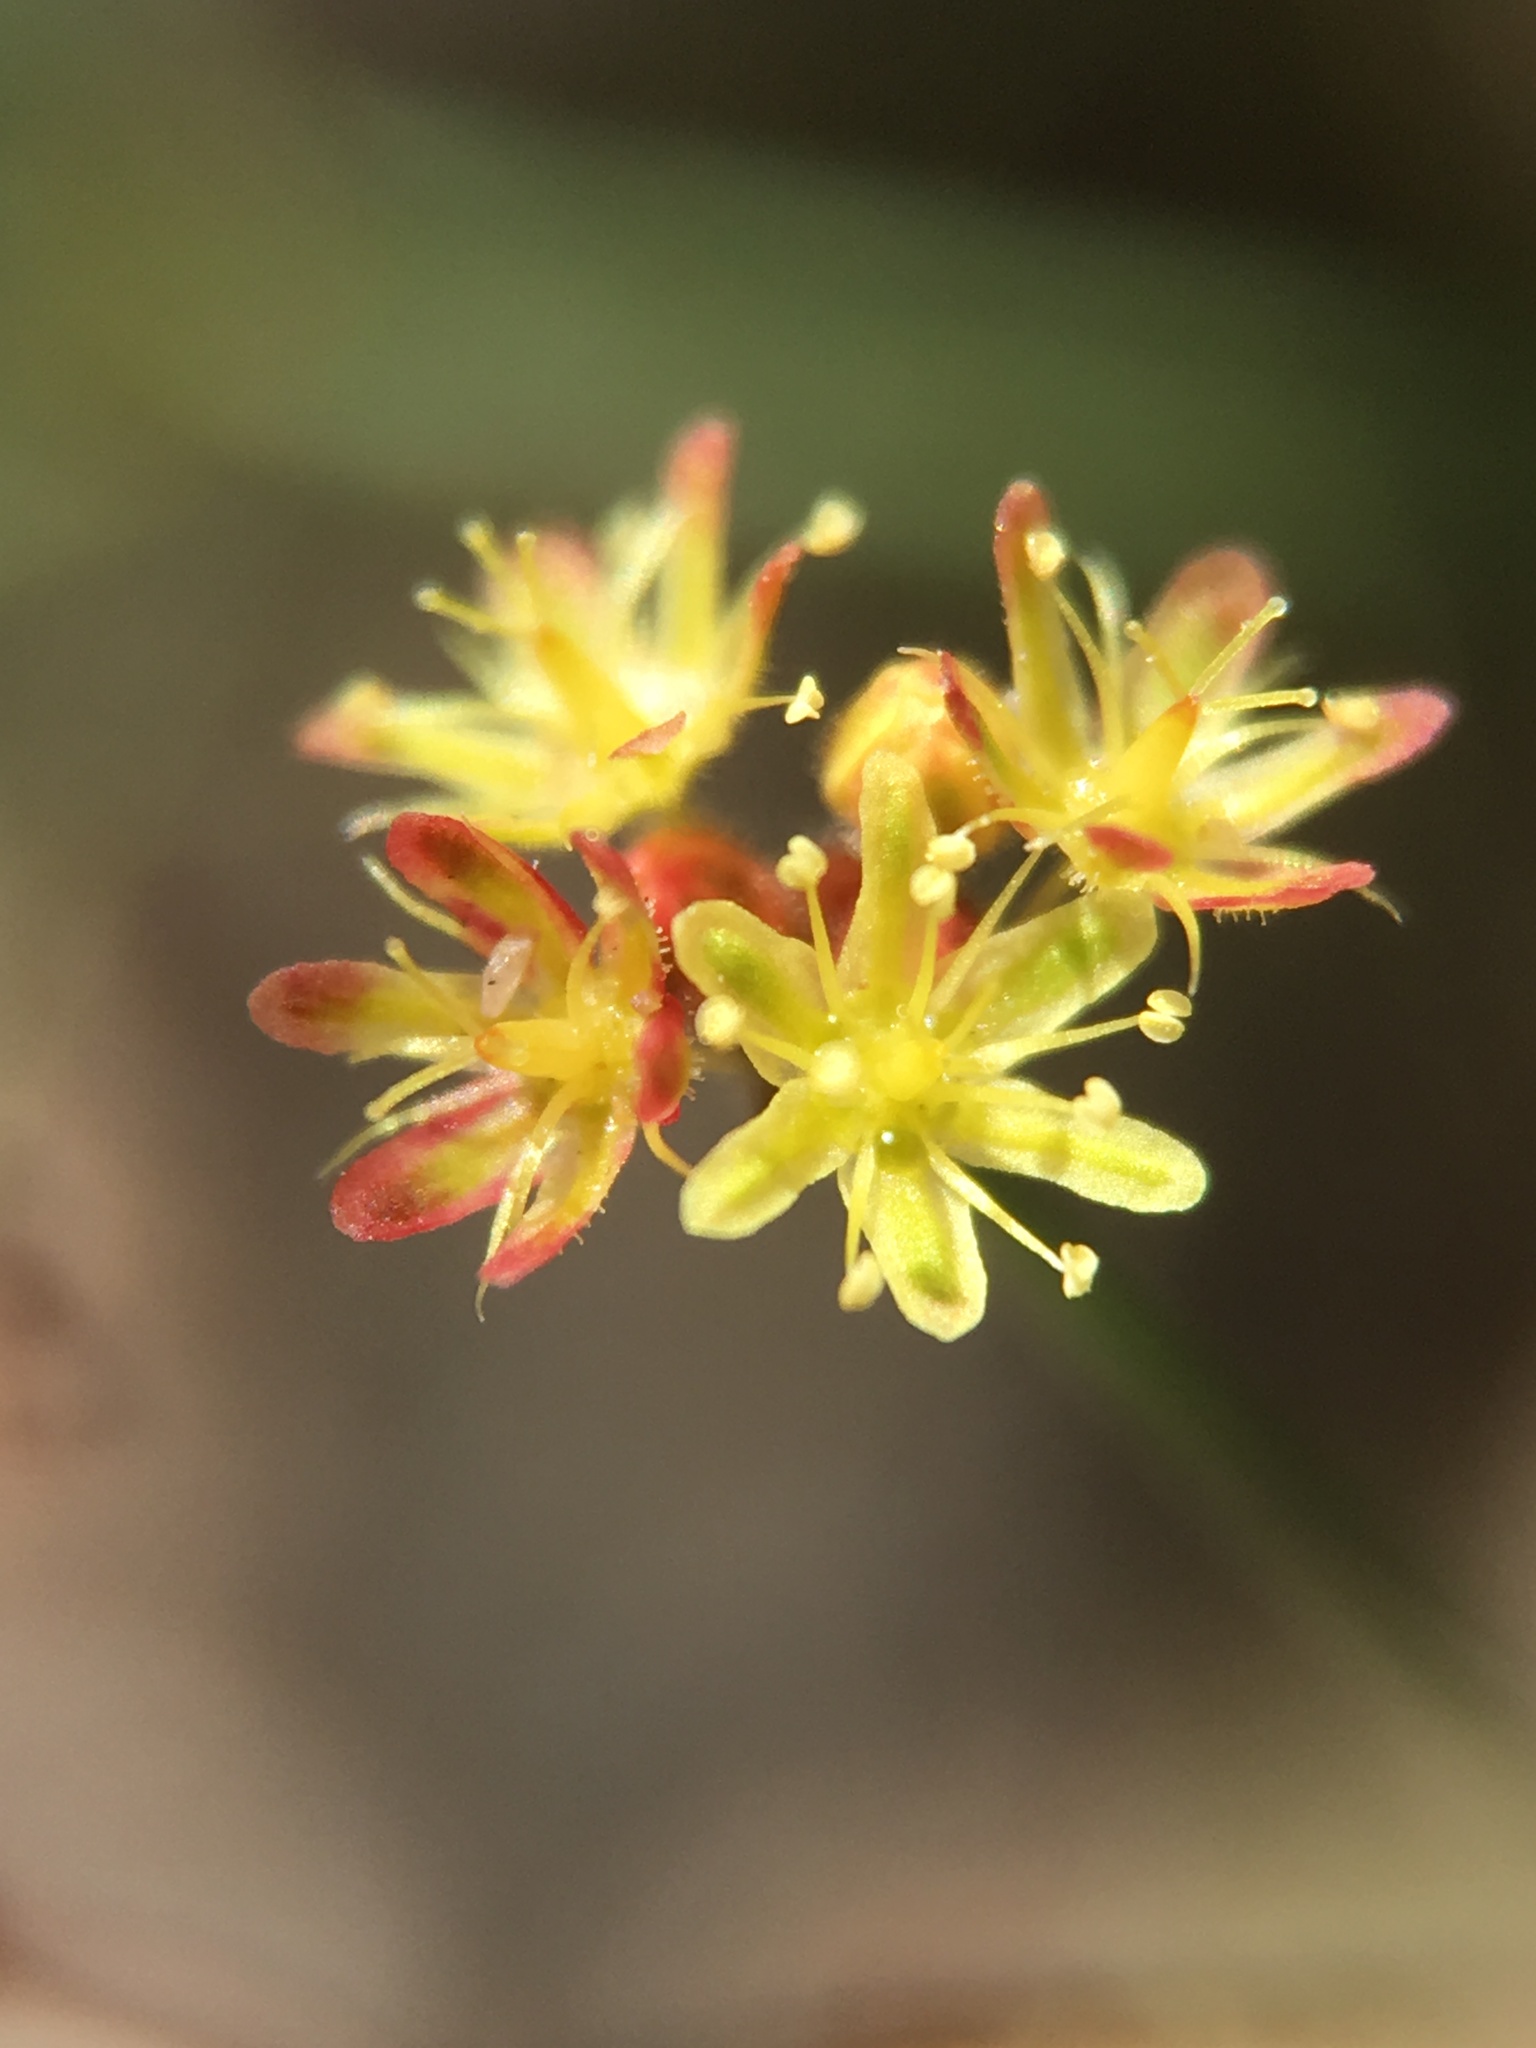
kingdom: Plantae
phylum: Tracheophyta
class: Magnoliopsida
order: Caryophyllales
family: Polygonaceae
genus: Eriogonum
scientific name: Eriogonum thomasii
